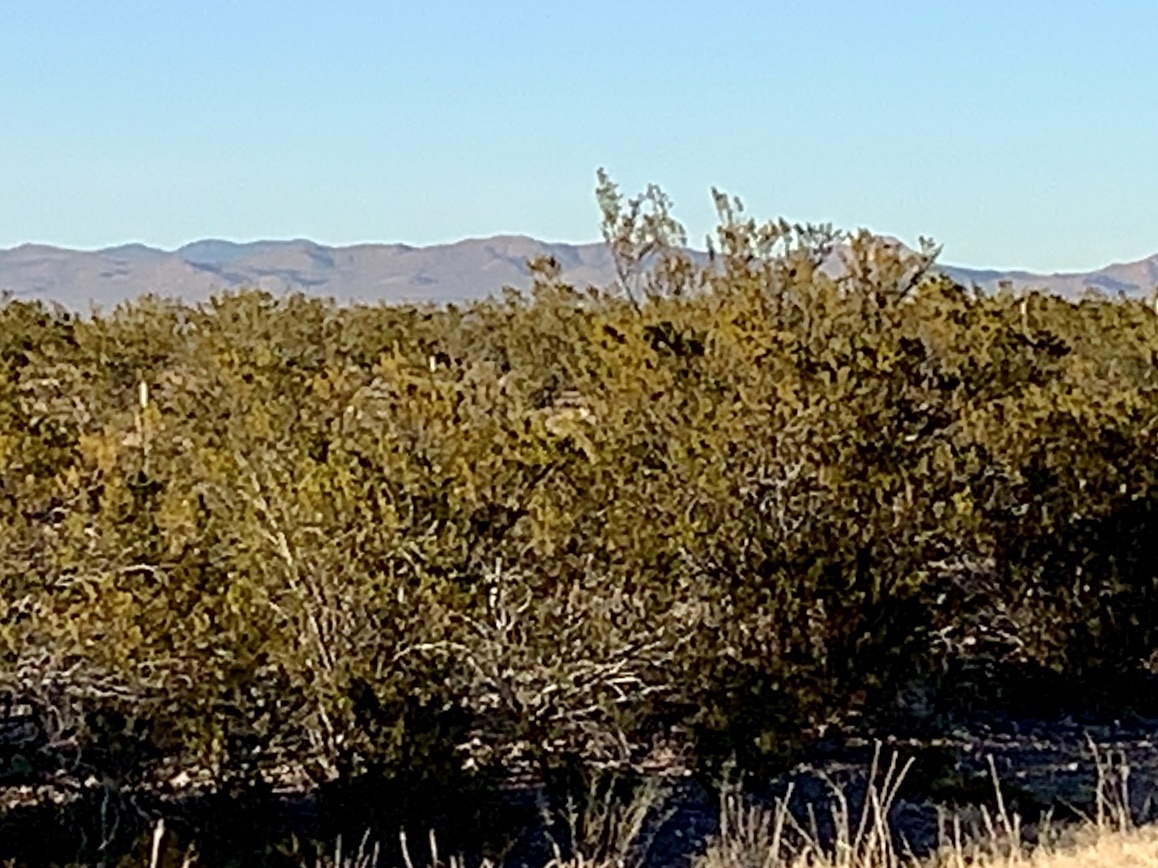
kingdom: Plantae
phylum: Tracheophyta
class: Magnoliopsida
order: Zygophyllales
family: Zygophyllaceae
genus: Larrea
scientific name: Larrea tridentata
